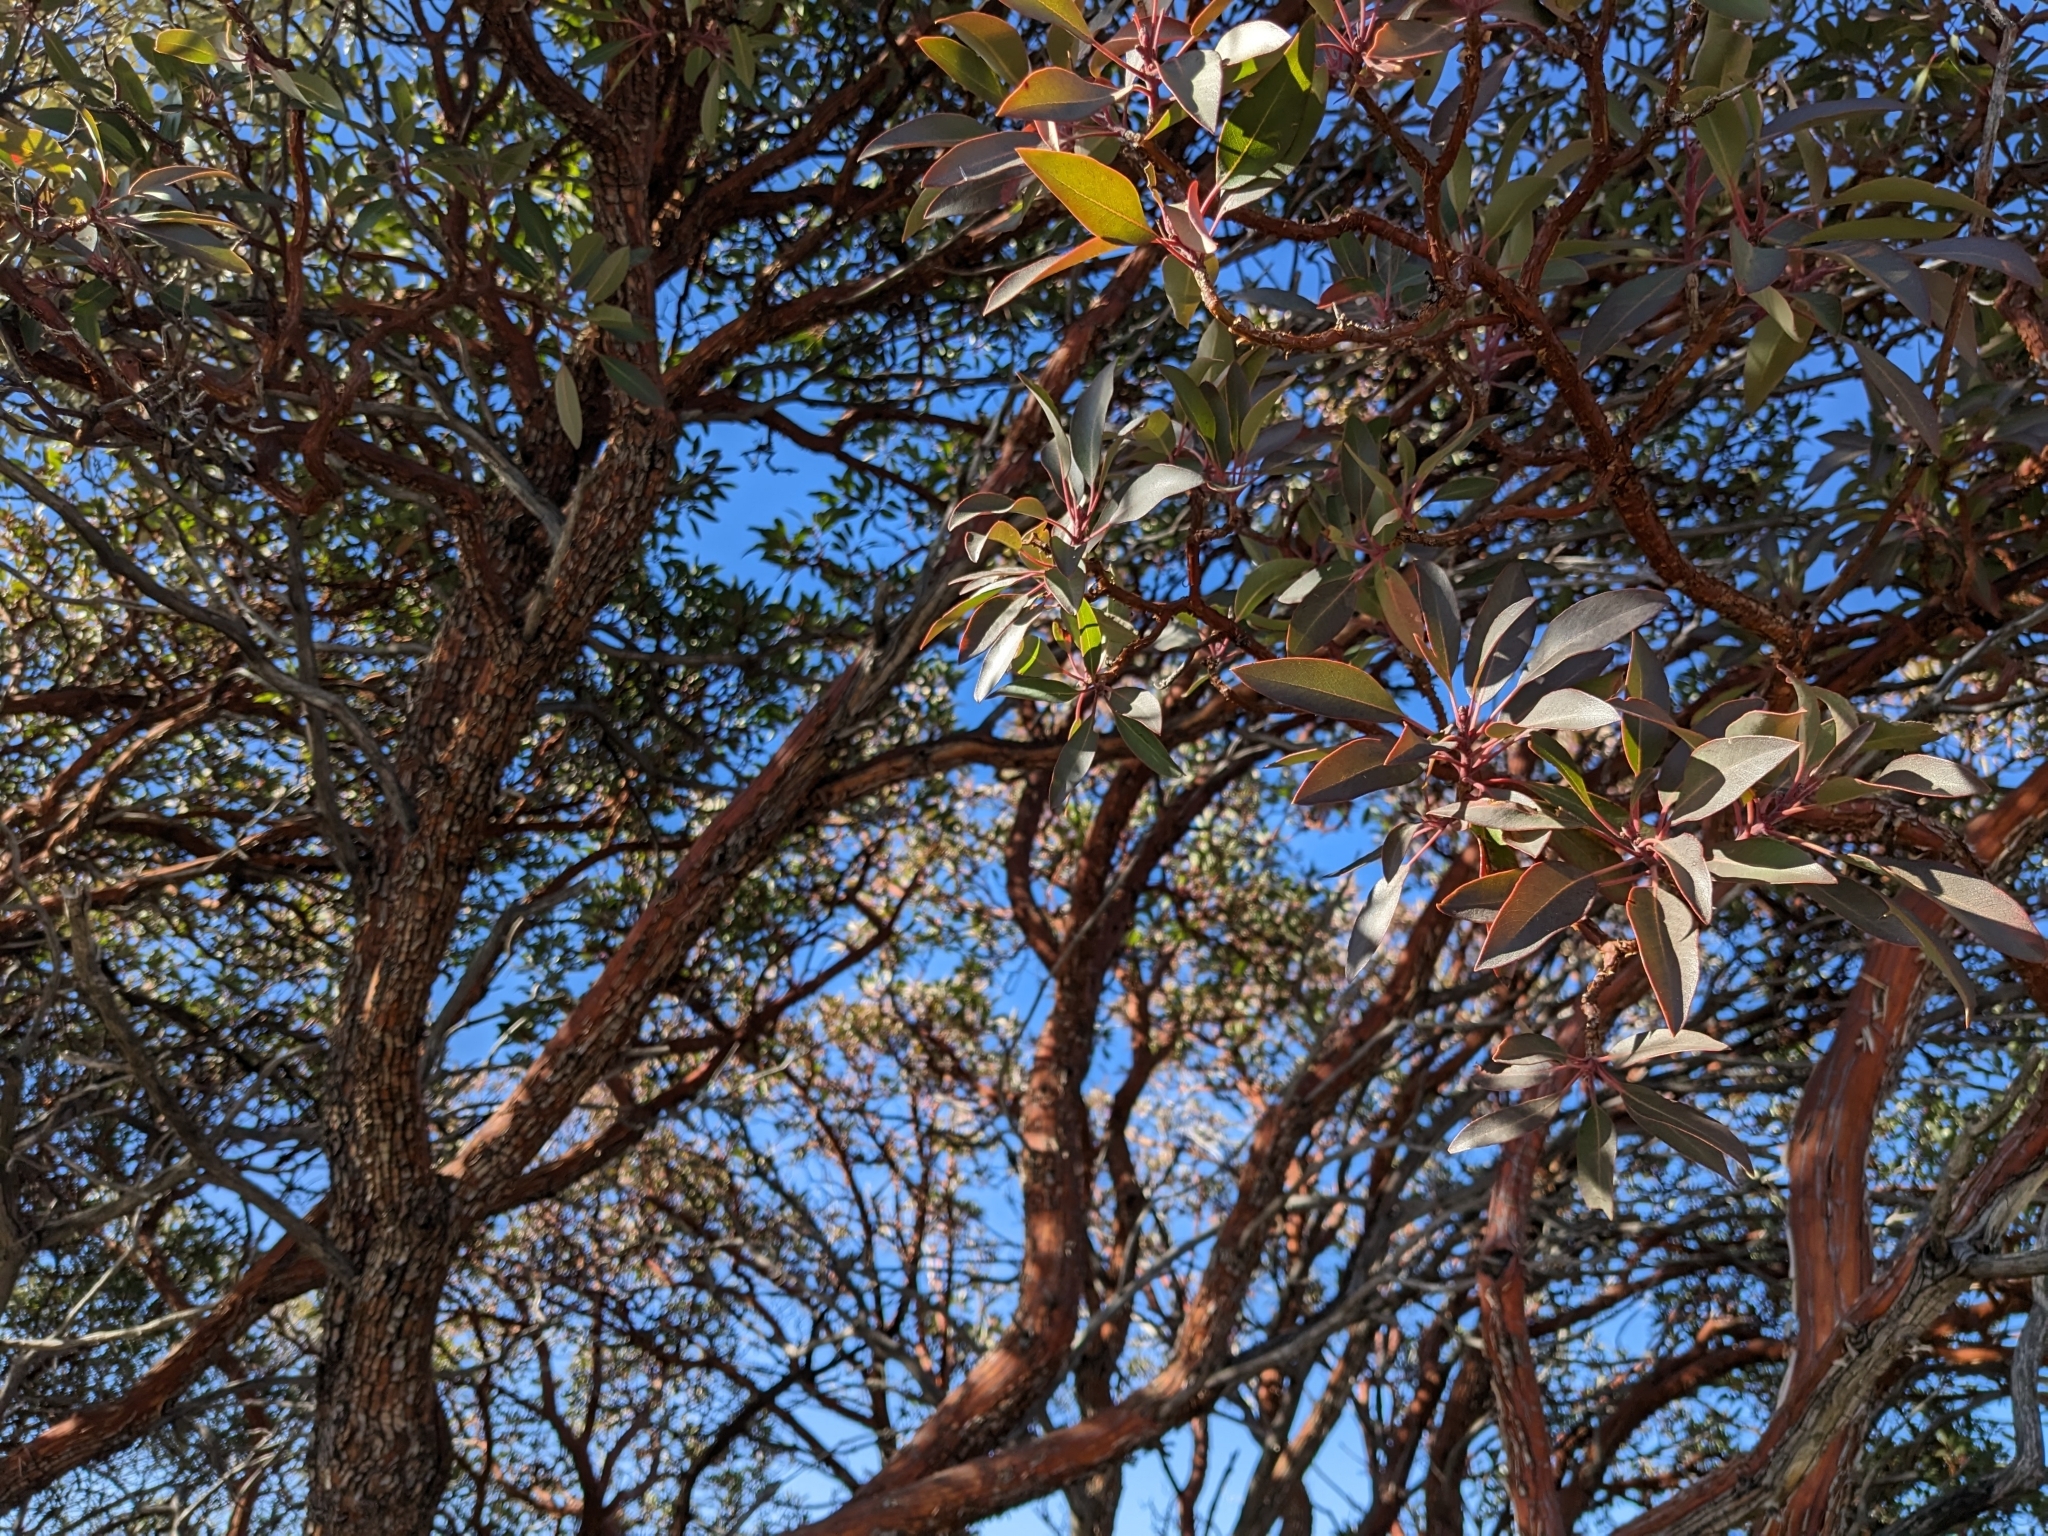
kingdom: Plantae
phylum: Tracheophyta
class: Magnoliopsida
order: Ericales
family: Ericaceae
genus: Arbutus
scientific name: Arbutus arizonica
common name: Arizona madrone
